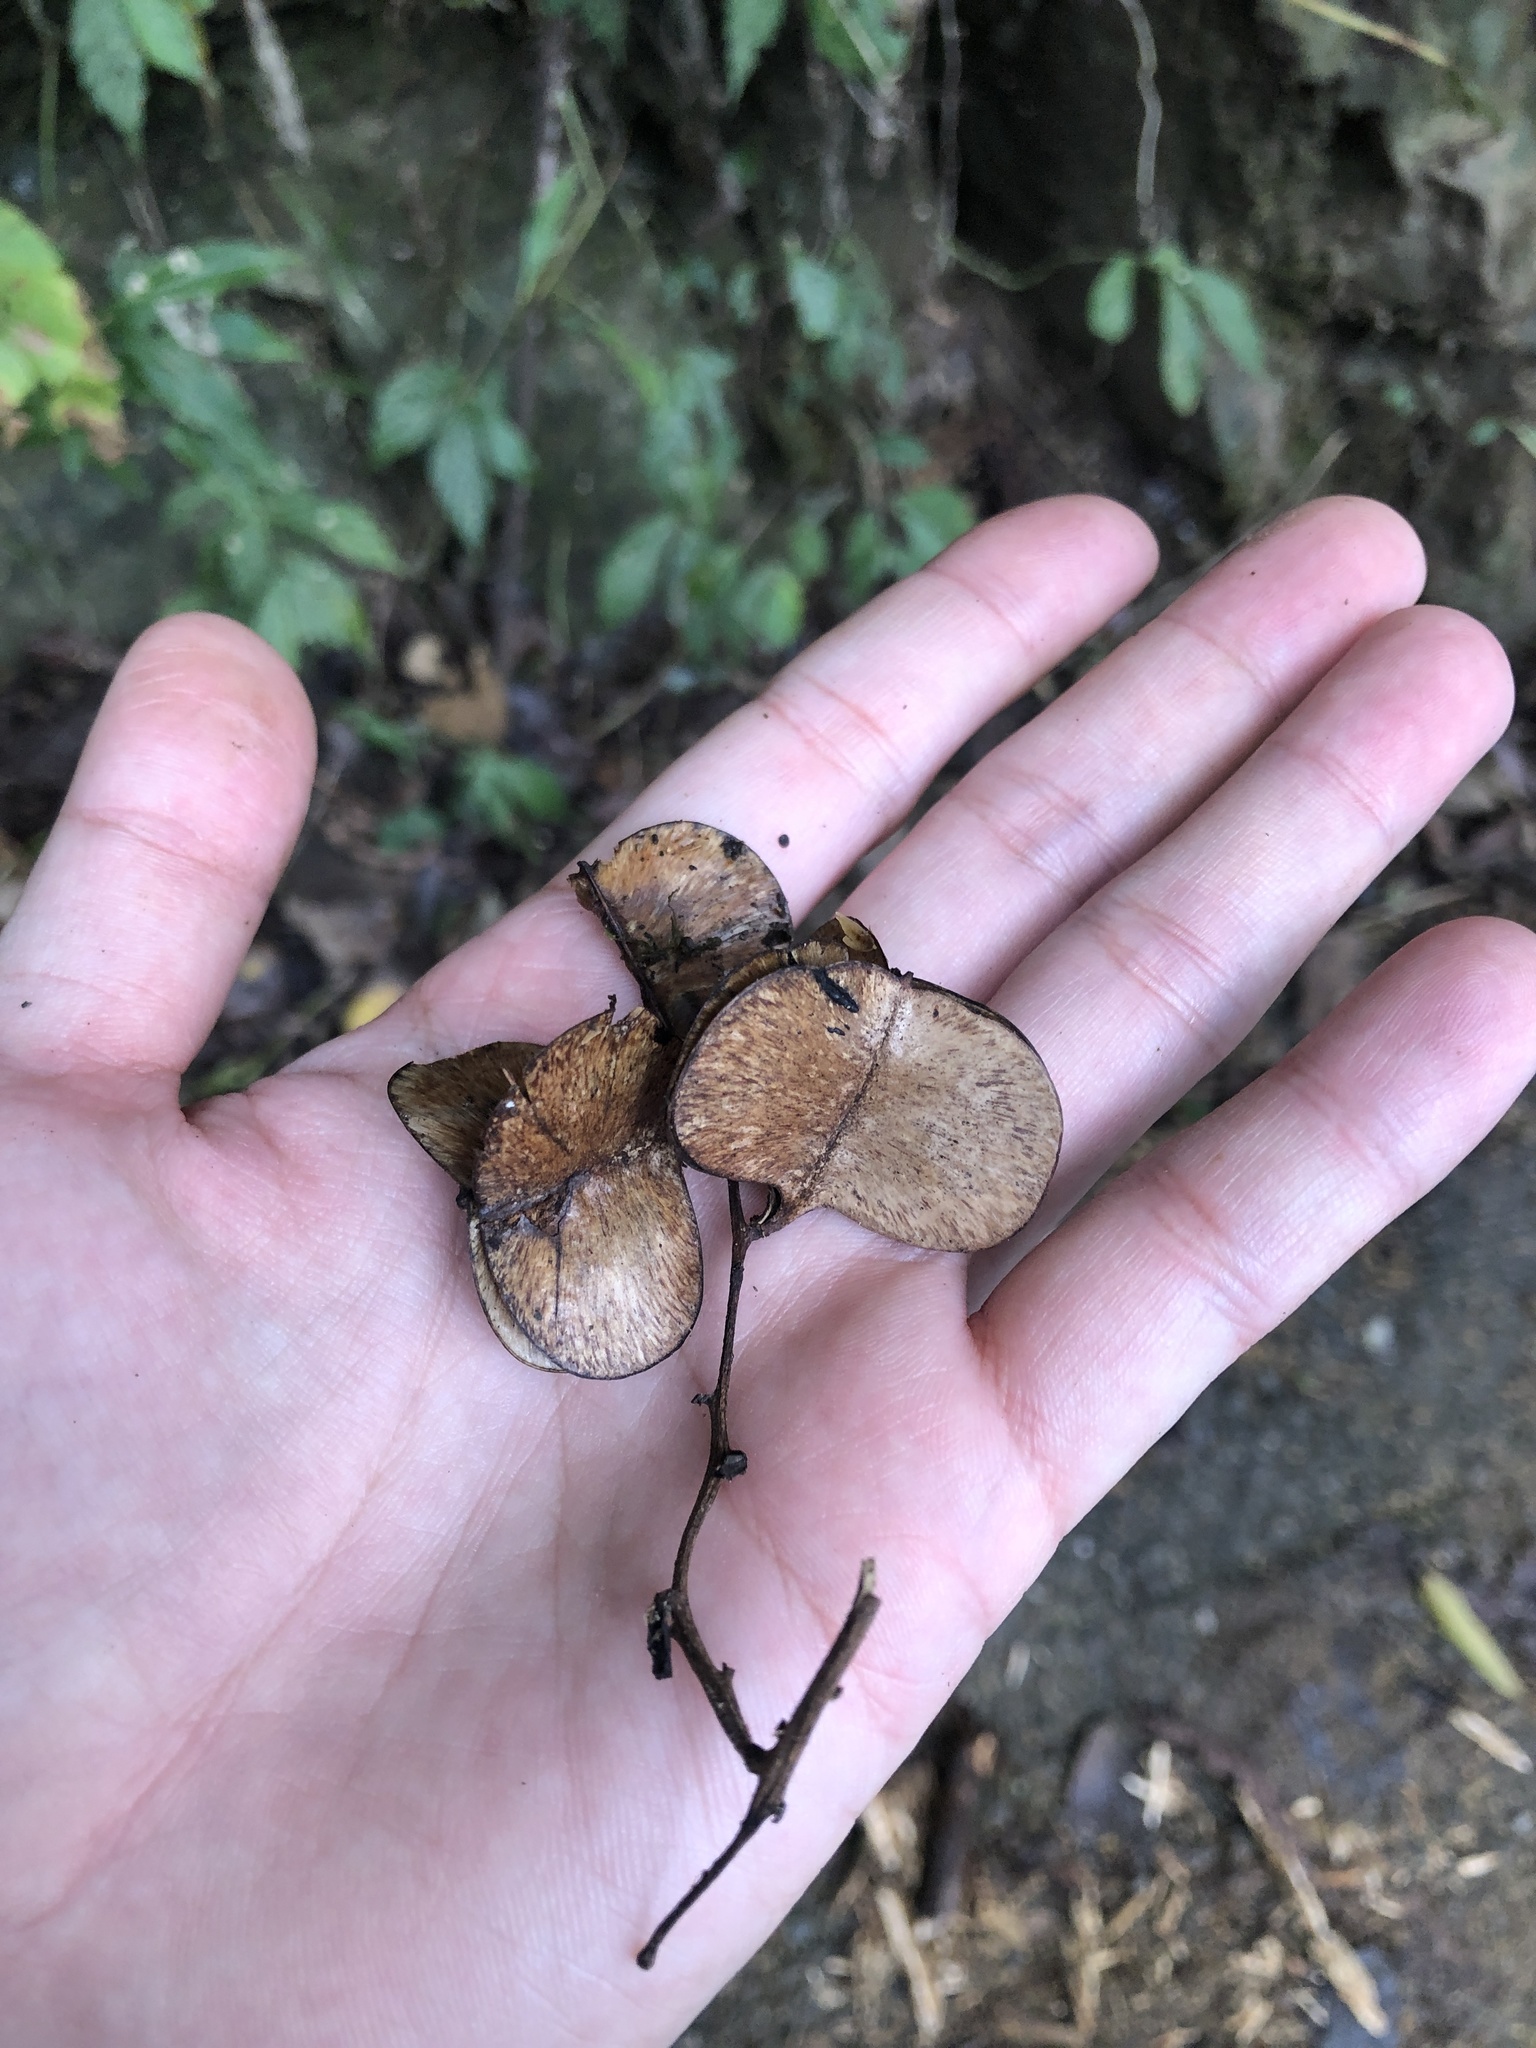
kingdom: Plantae
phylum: Tracheophyta
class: Liliopsida
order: Dioscoreales
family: Dioscoreaceae
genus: Dioscorea
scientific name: Dioscorea cirrhosa
